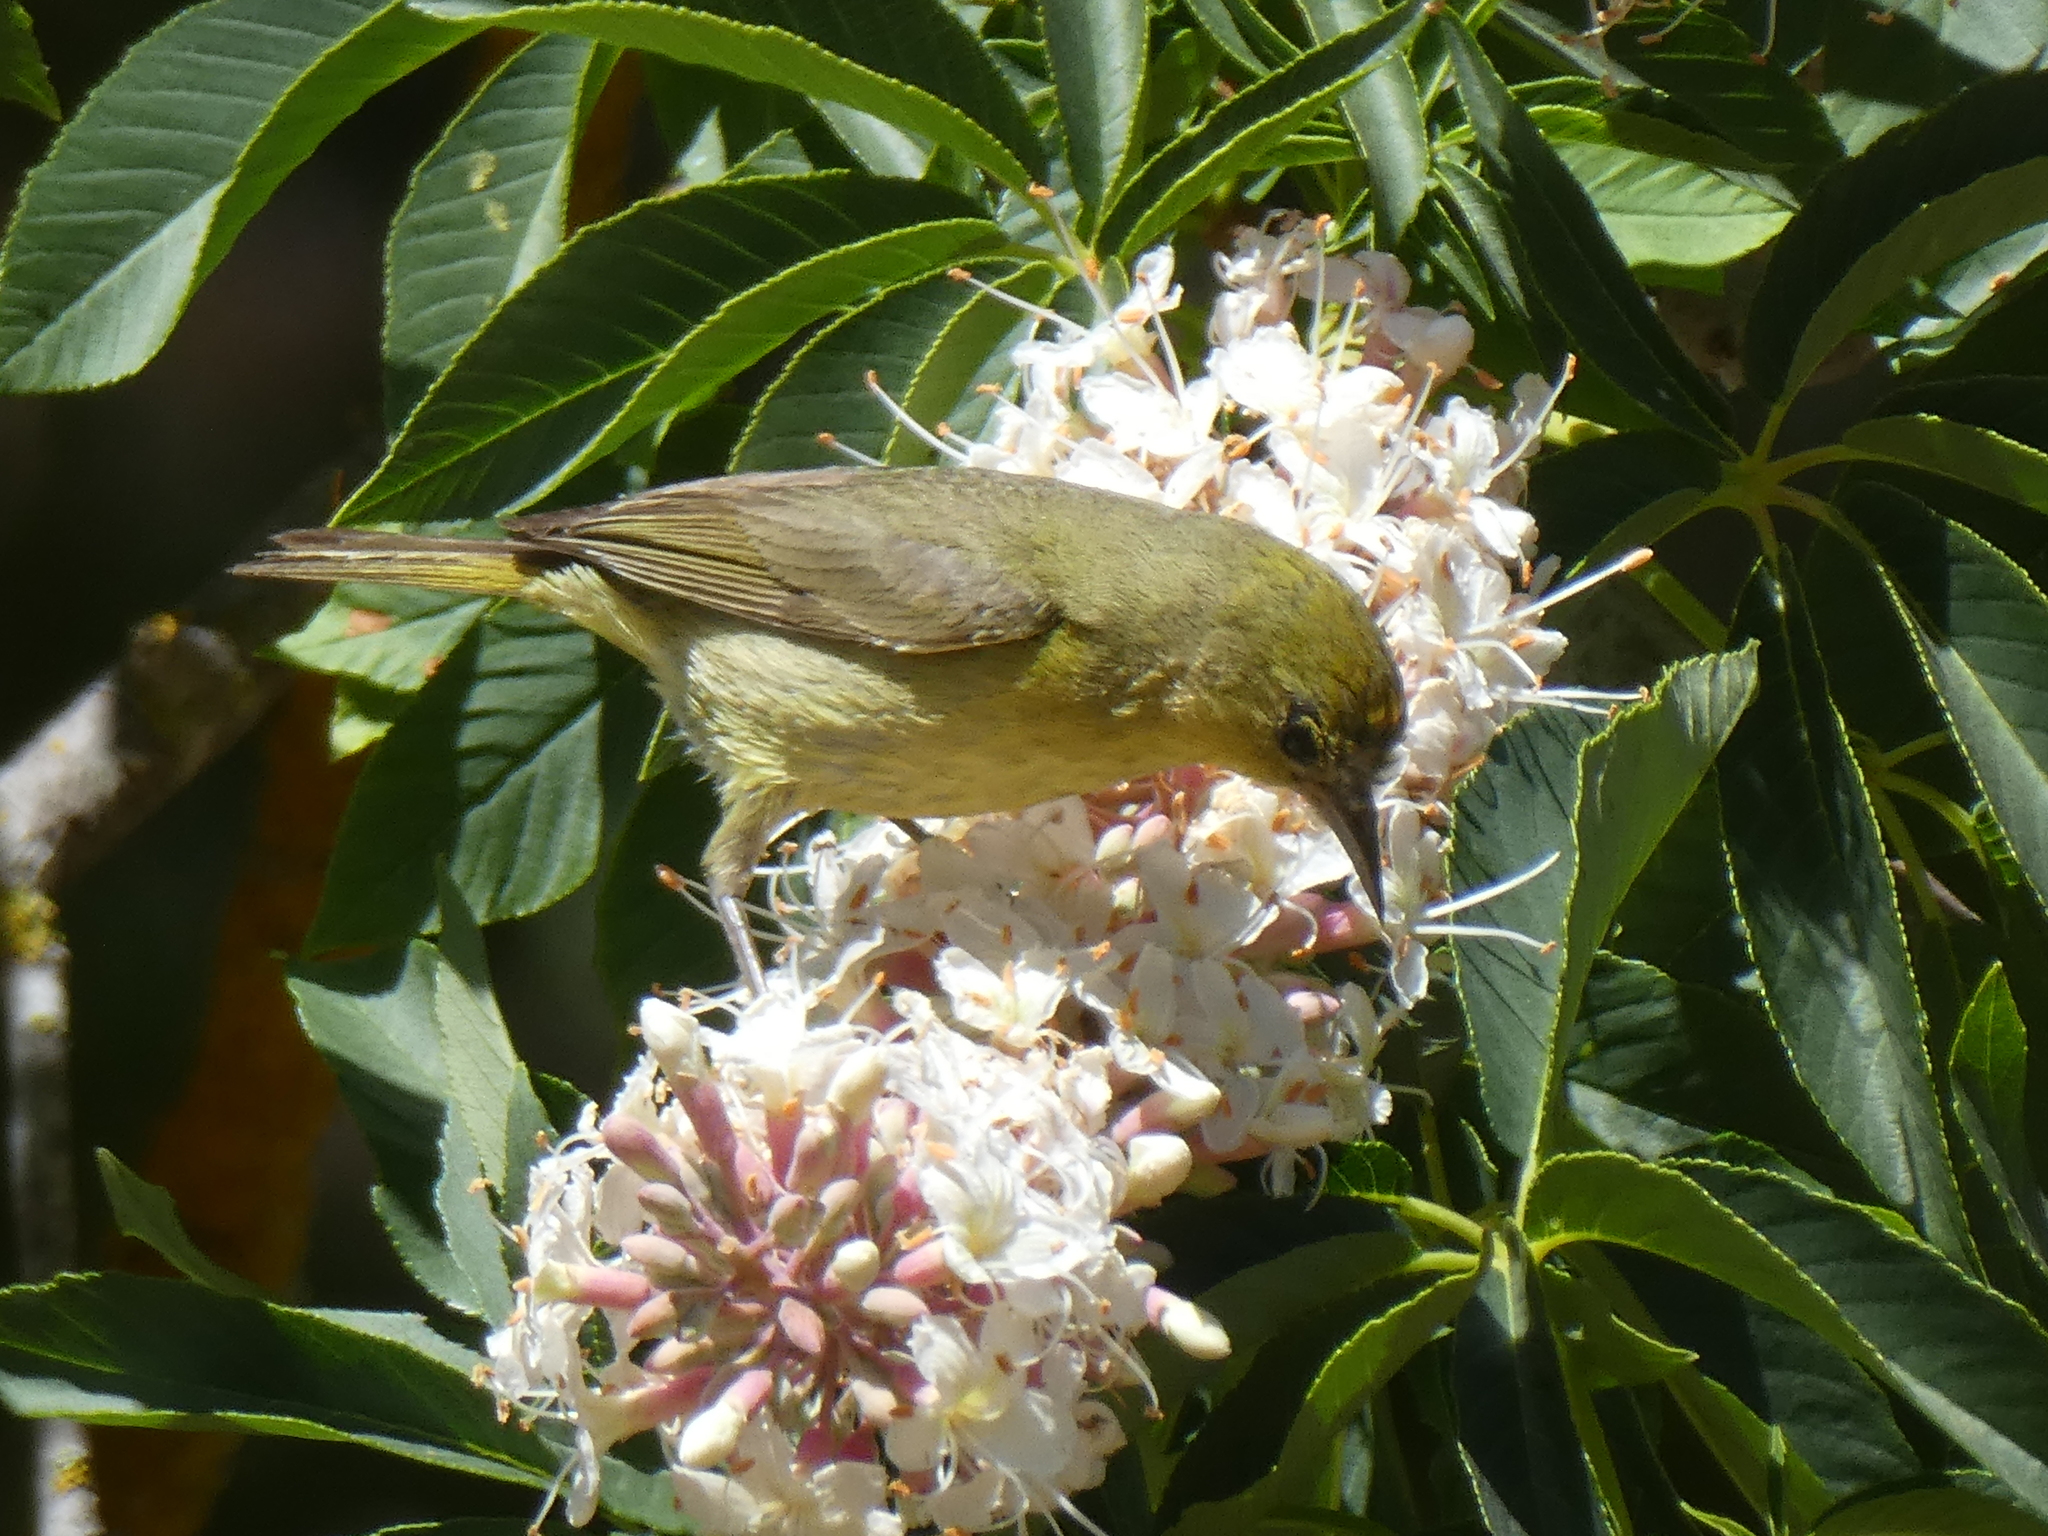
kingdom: Animalia
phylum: Chordata
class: Aves
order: Passeriformes
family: Parulidae
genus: Leiothlypis
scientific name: Leiothlypis celata
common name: Orange-crowned warbler
